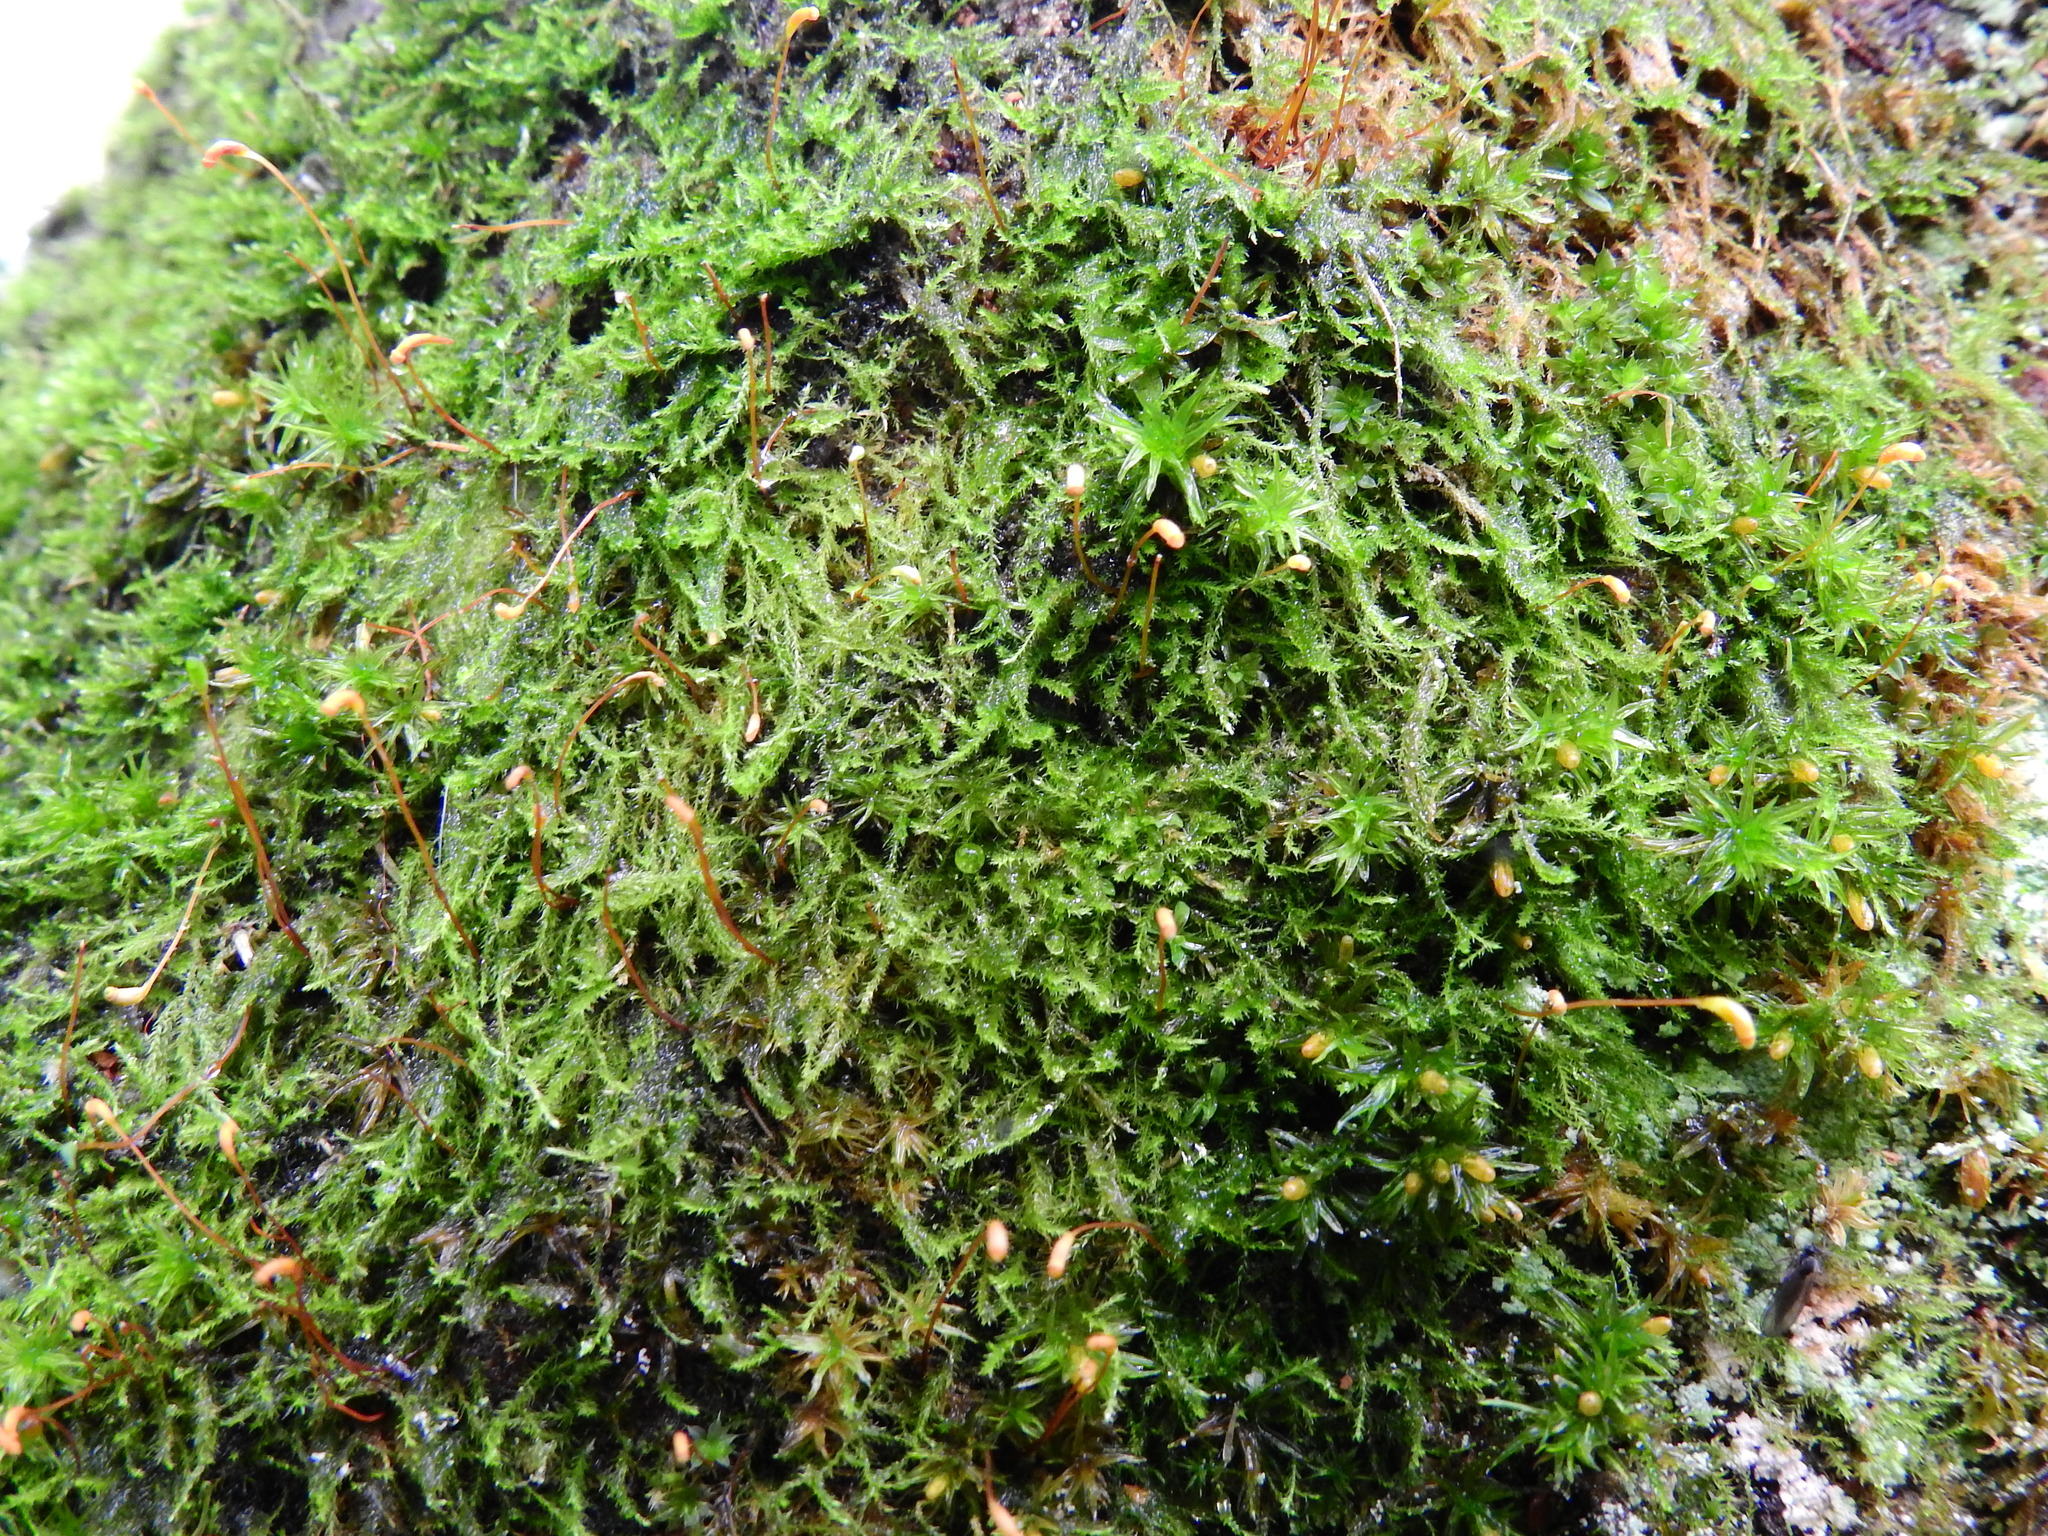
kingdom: Plantae
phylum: Bryophyta
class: Bryopsida
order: Hypnales
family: Amblystegiaceae
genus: Amblystegium
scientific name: Amblystegium serpens
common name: Jurkatzka's feather moss
